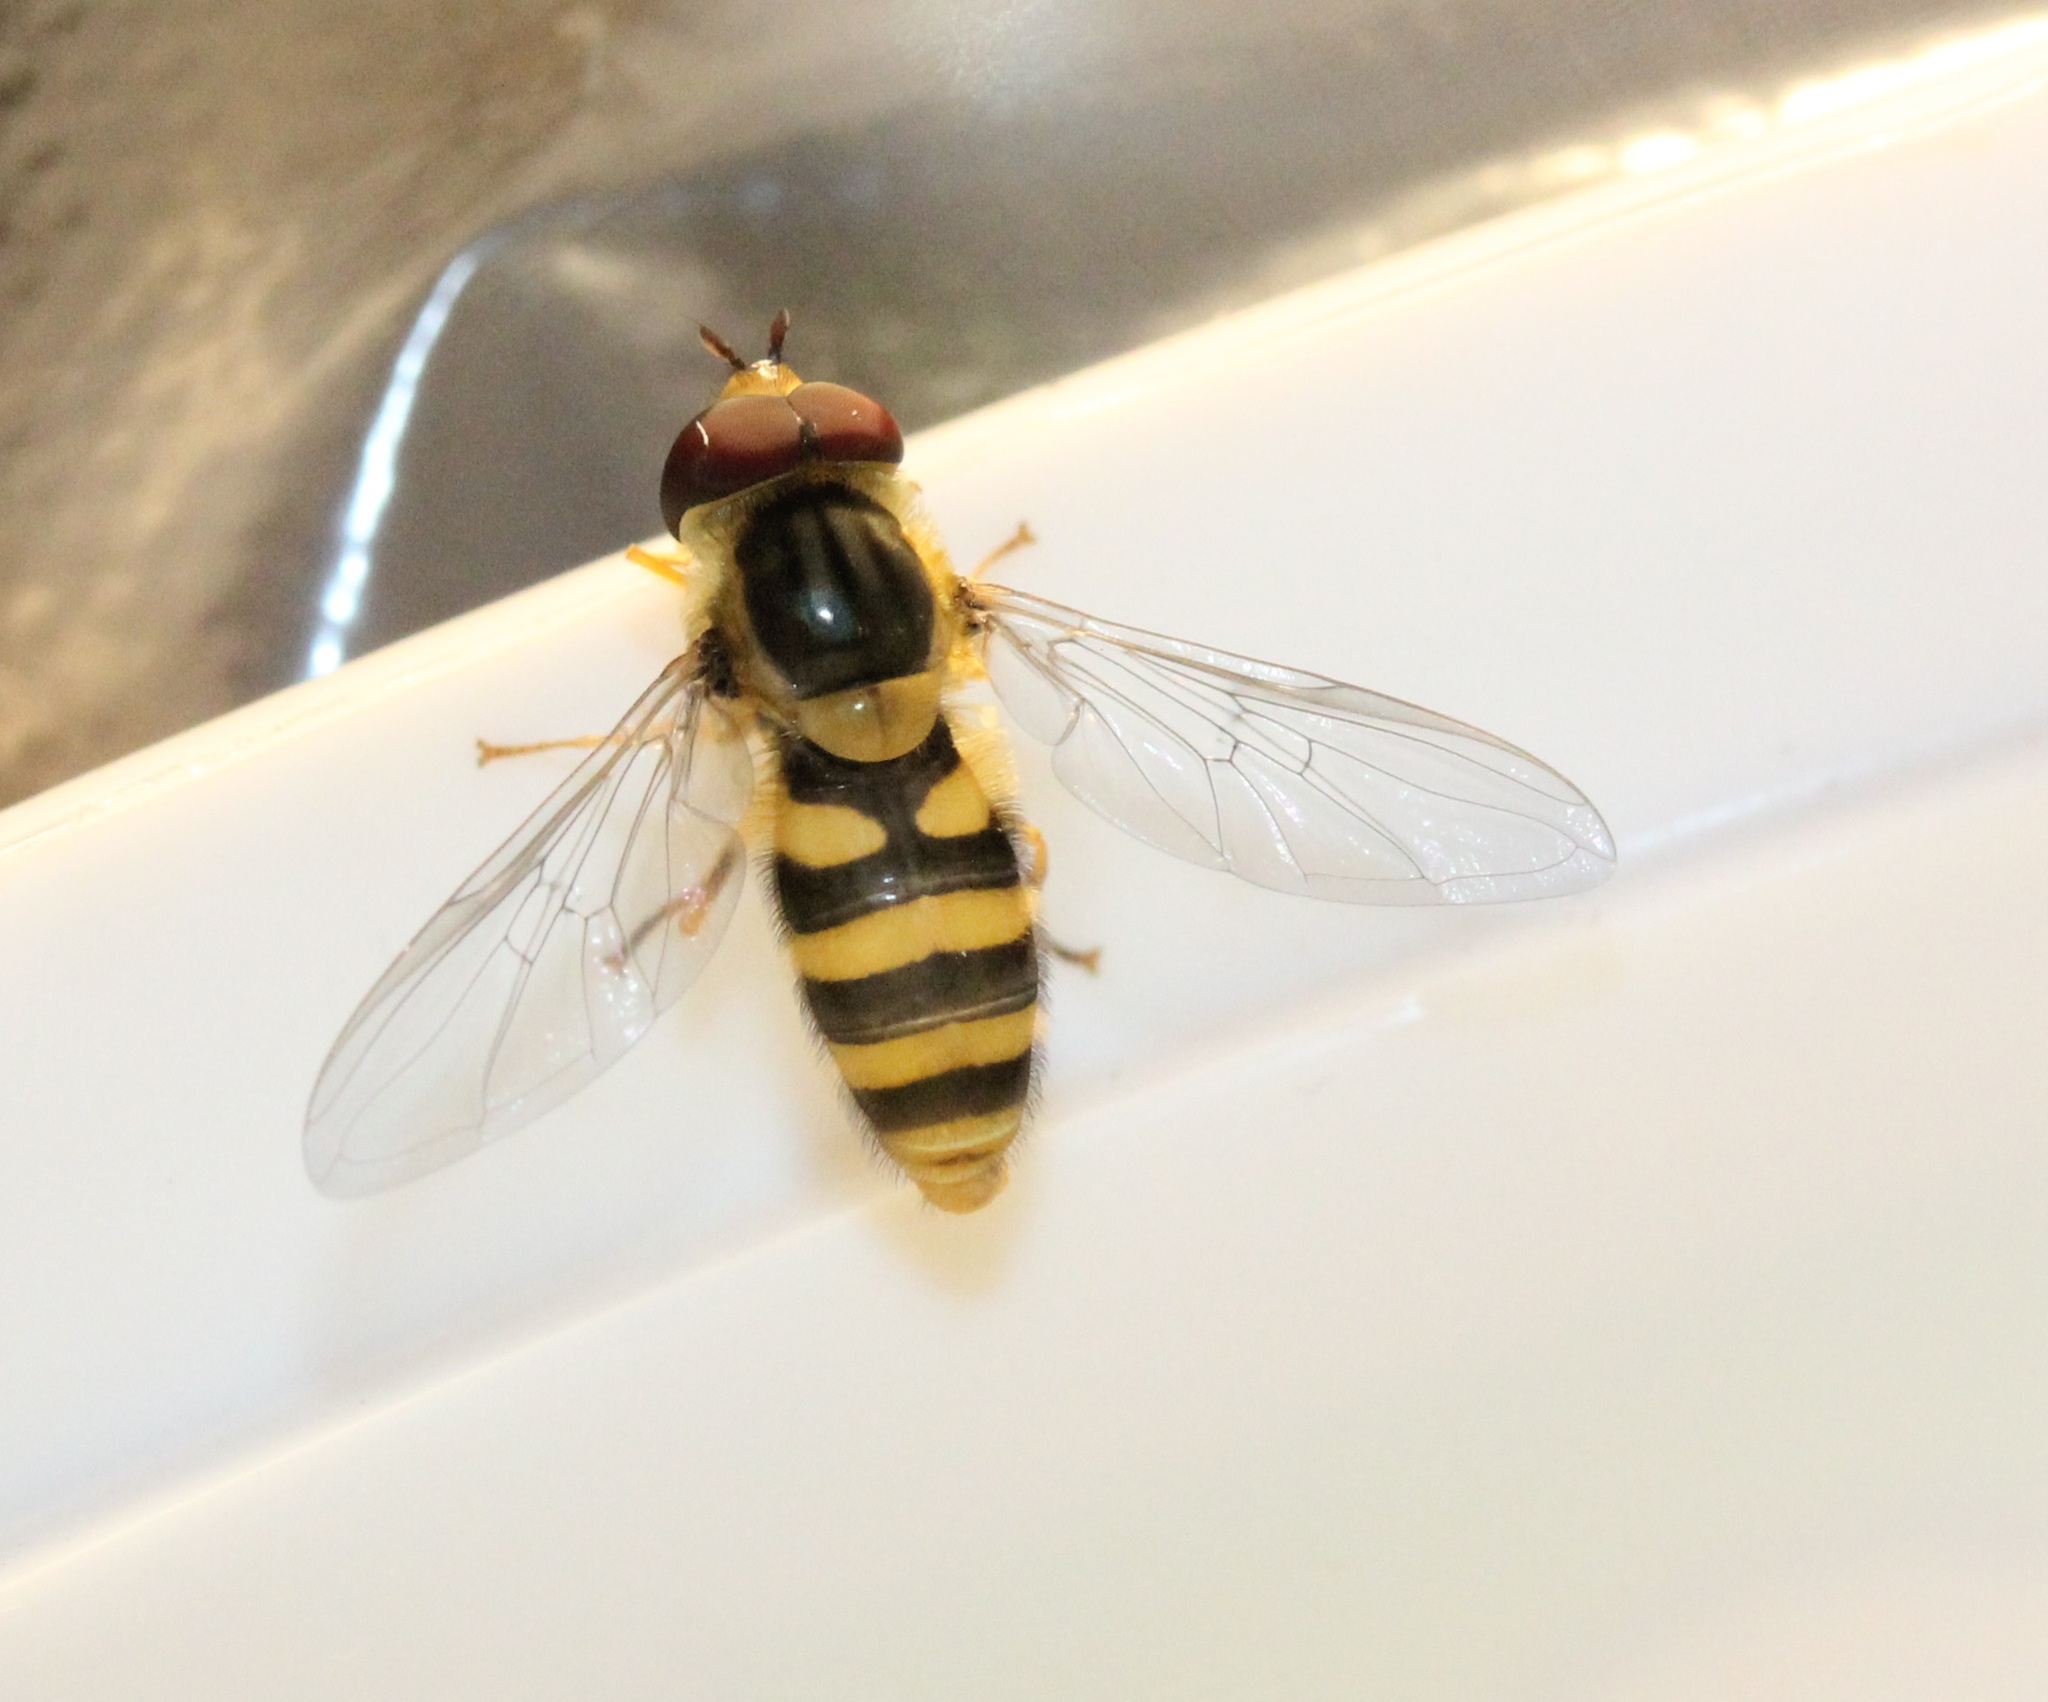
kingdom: Animalia
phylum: Arthropoda
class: Insecta
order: Diptera
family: Syrphidae
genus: Syrphus
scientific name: Syrphus knabi
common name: Eastern flower fly
